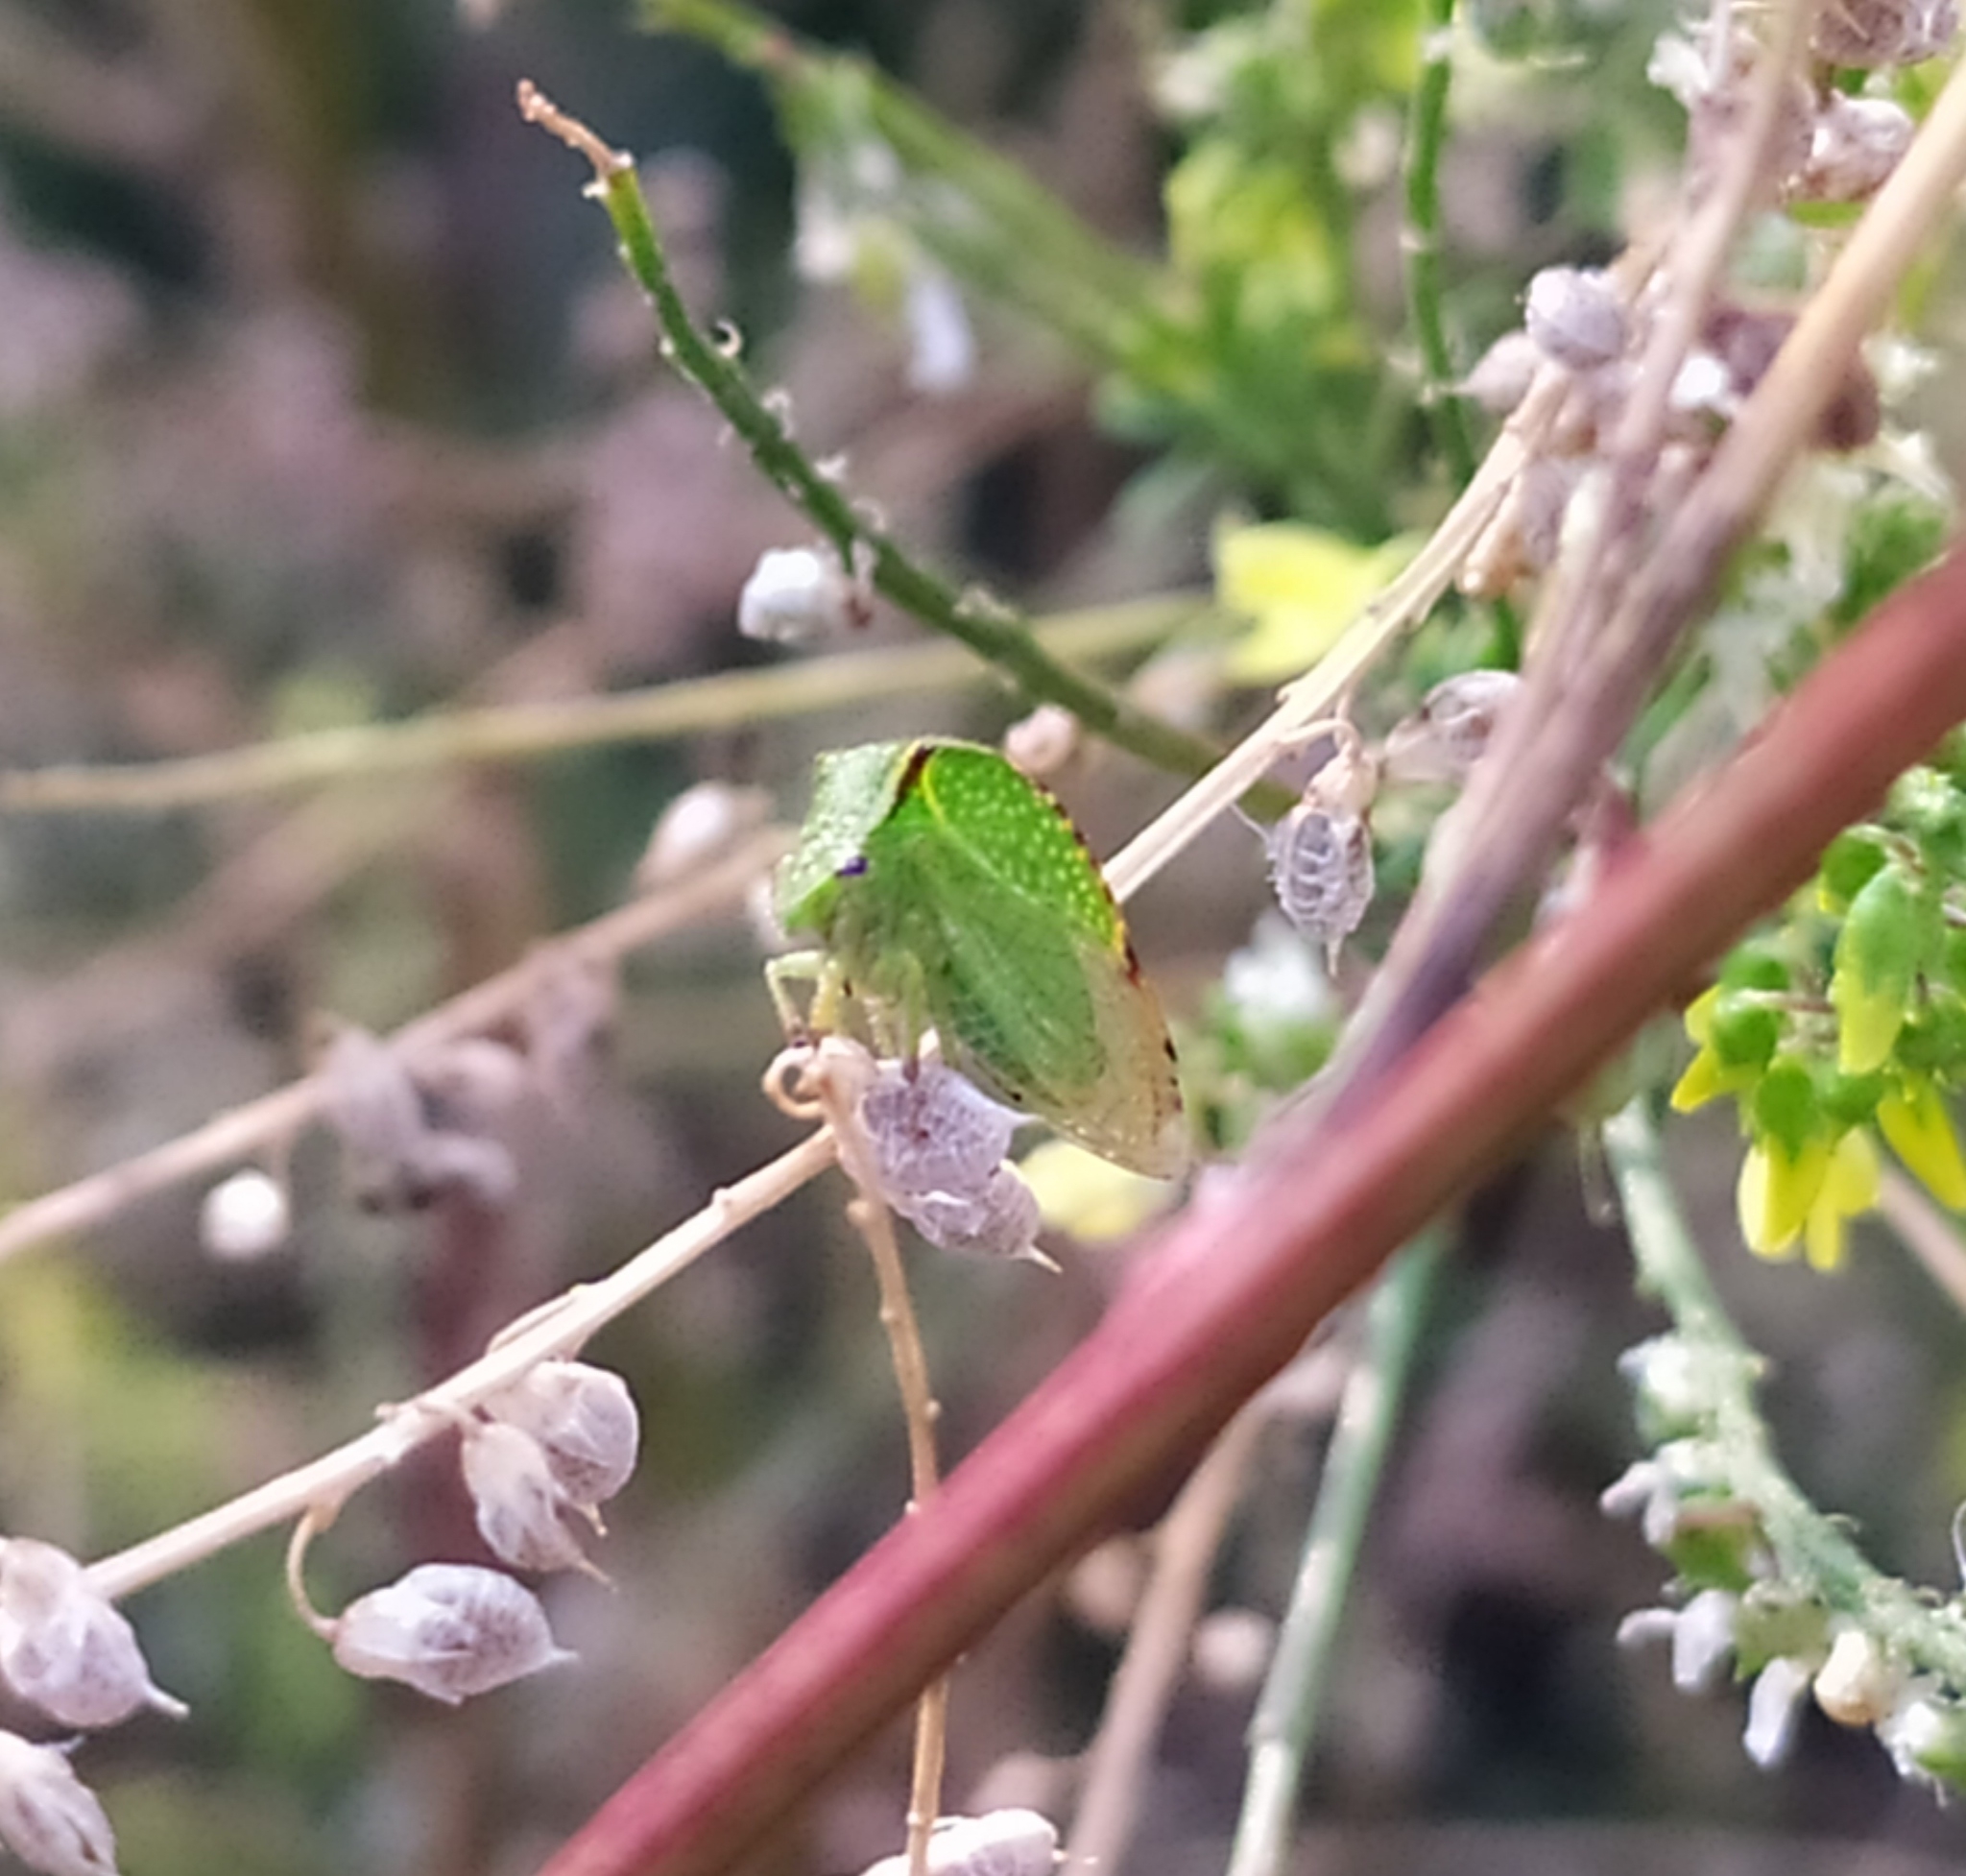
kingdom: Animalia
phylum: Arthropoda
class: Insecta
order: Hemiptera
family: Membracidae
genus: Stictocephala
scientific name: Stictocephala bisonia
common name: American buffalo treehopper
